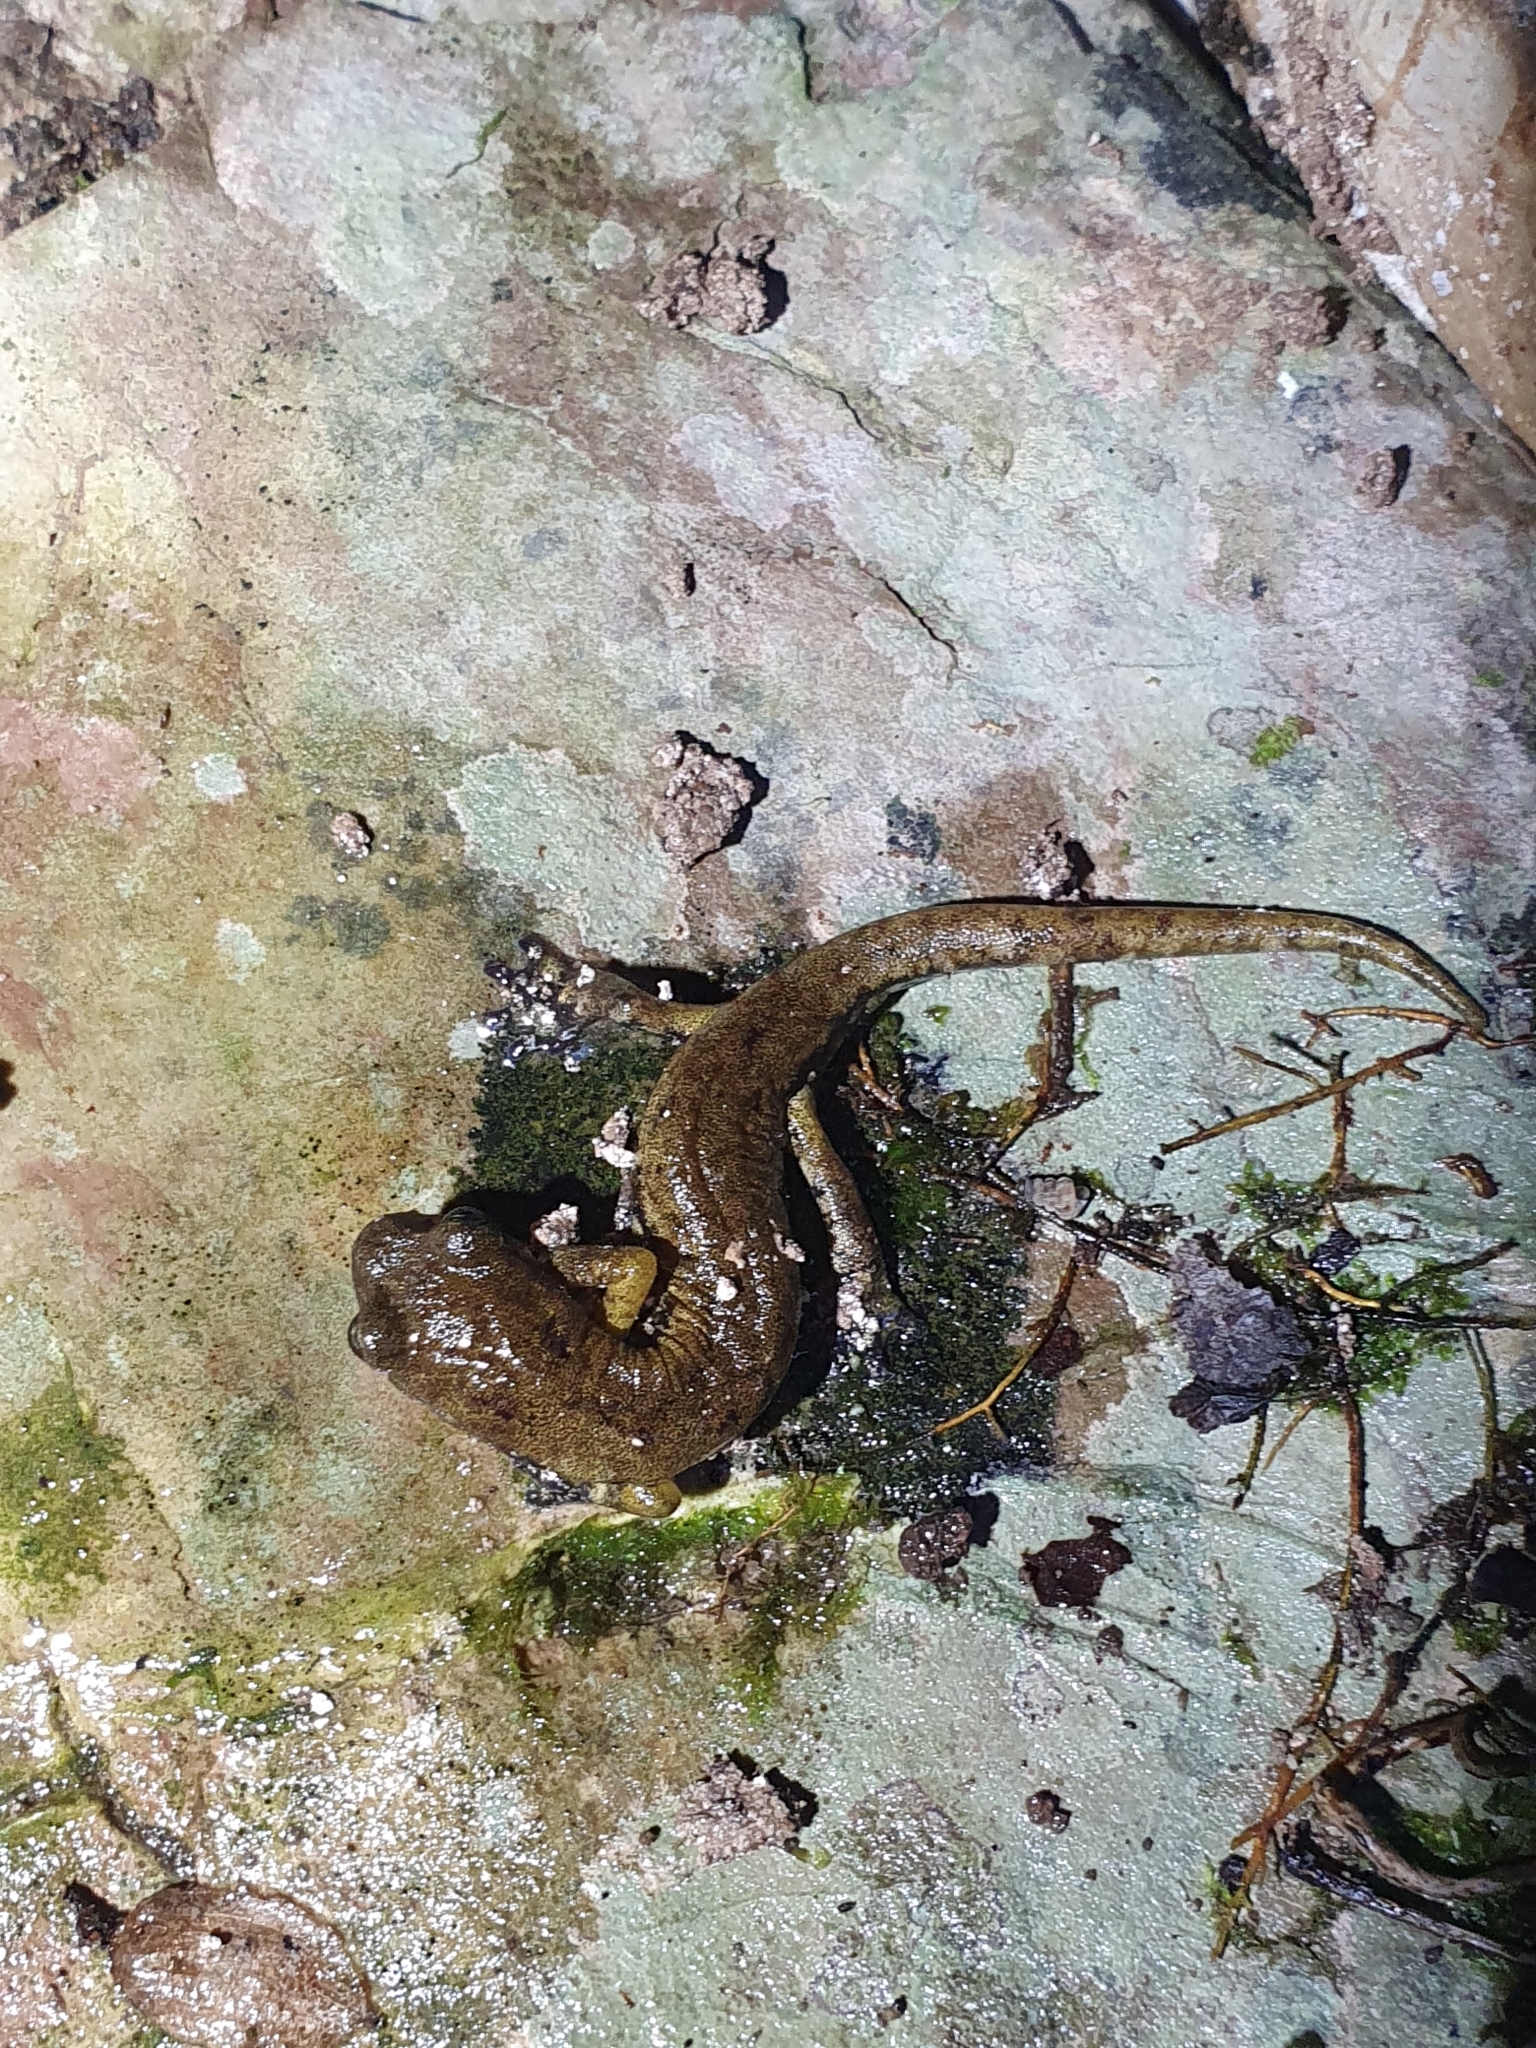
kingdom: Animalia
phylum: Chordata
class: Amphibia
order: Caudata
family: Plethodontidae
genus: Speleomantes
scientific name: Speleomantes ambrosii
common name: Ambrosi's cave salamander
